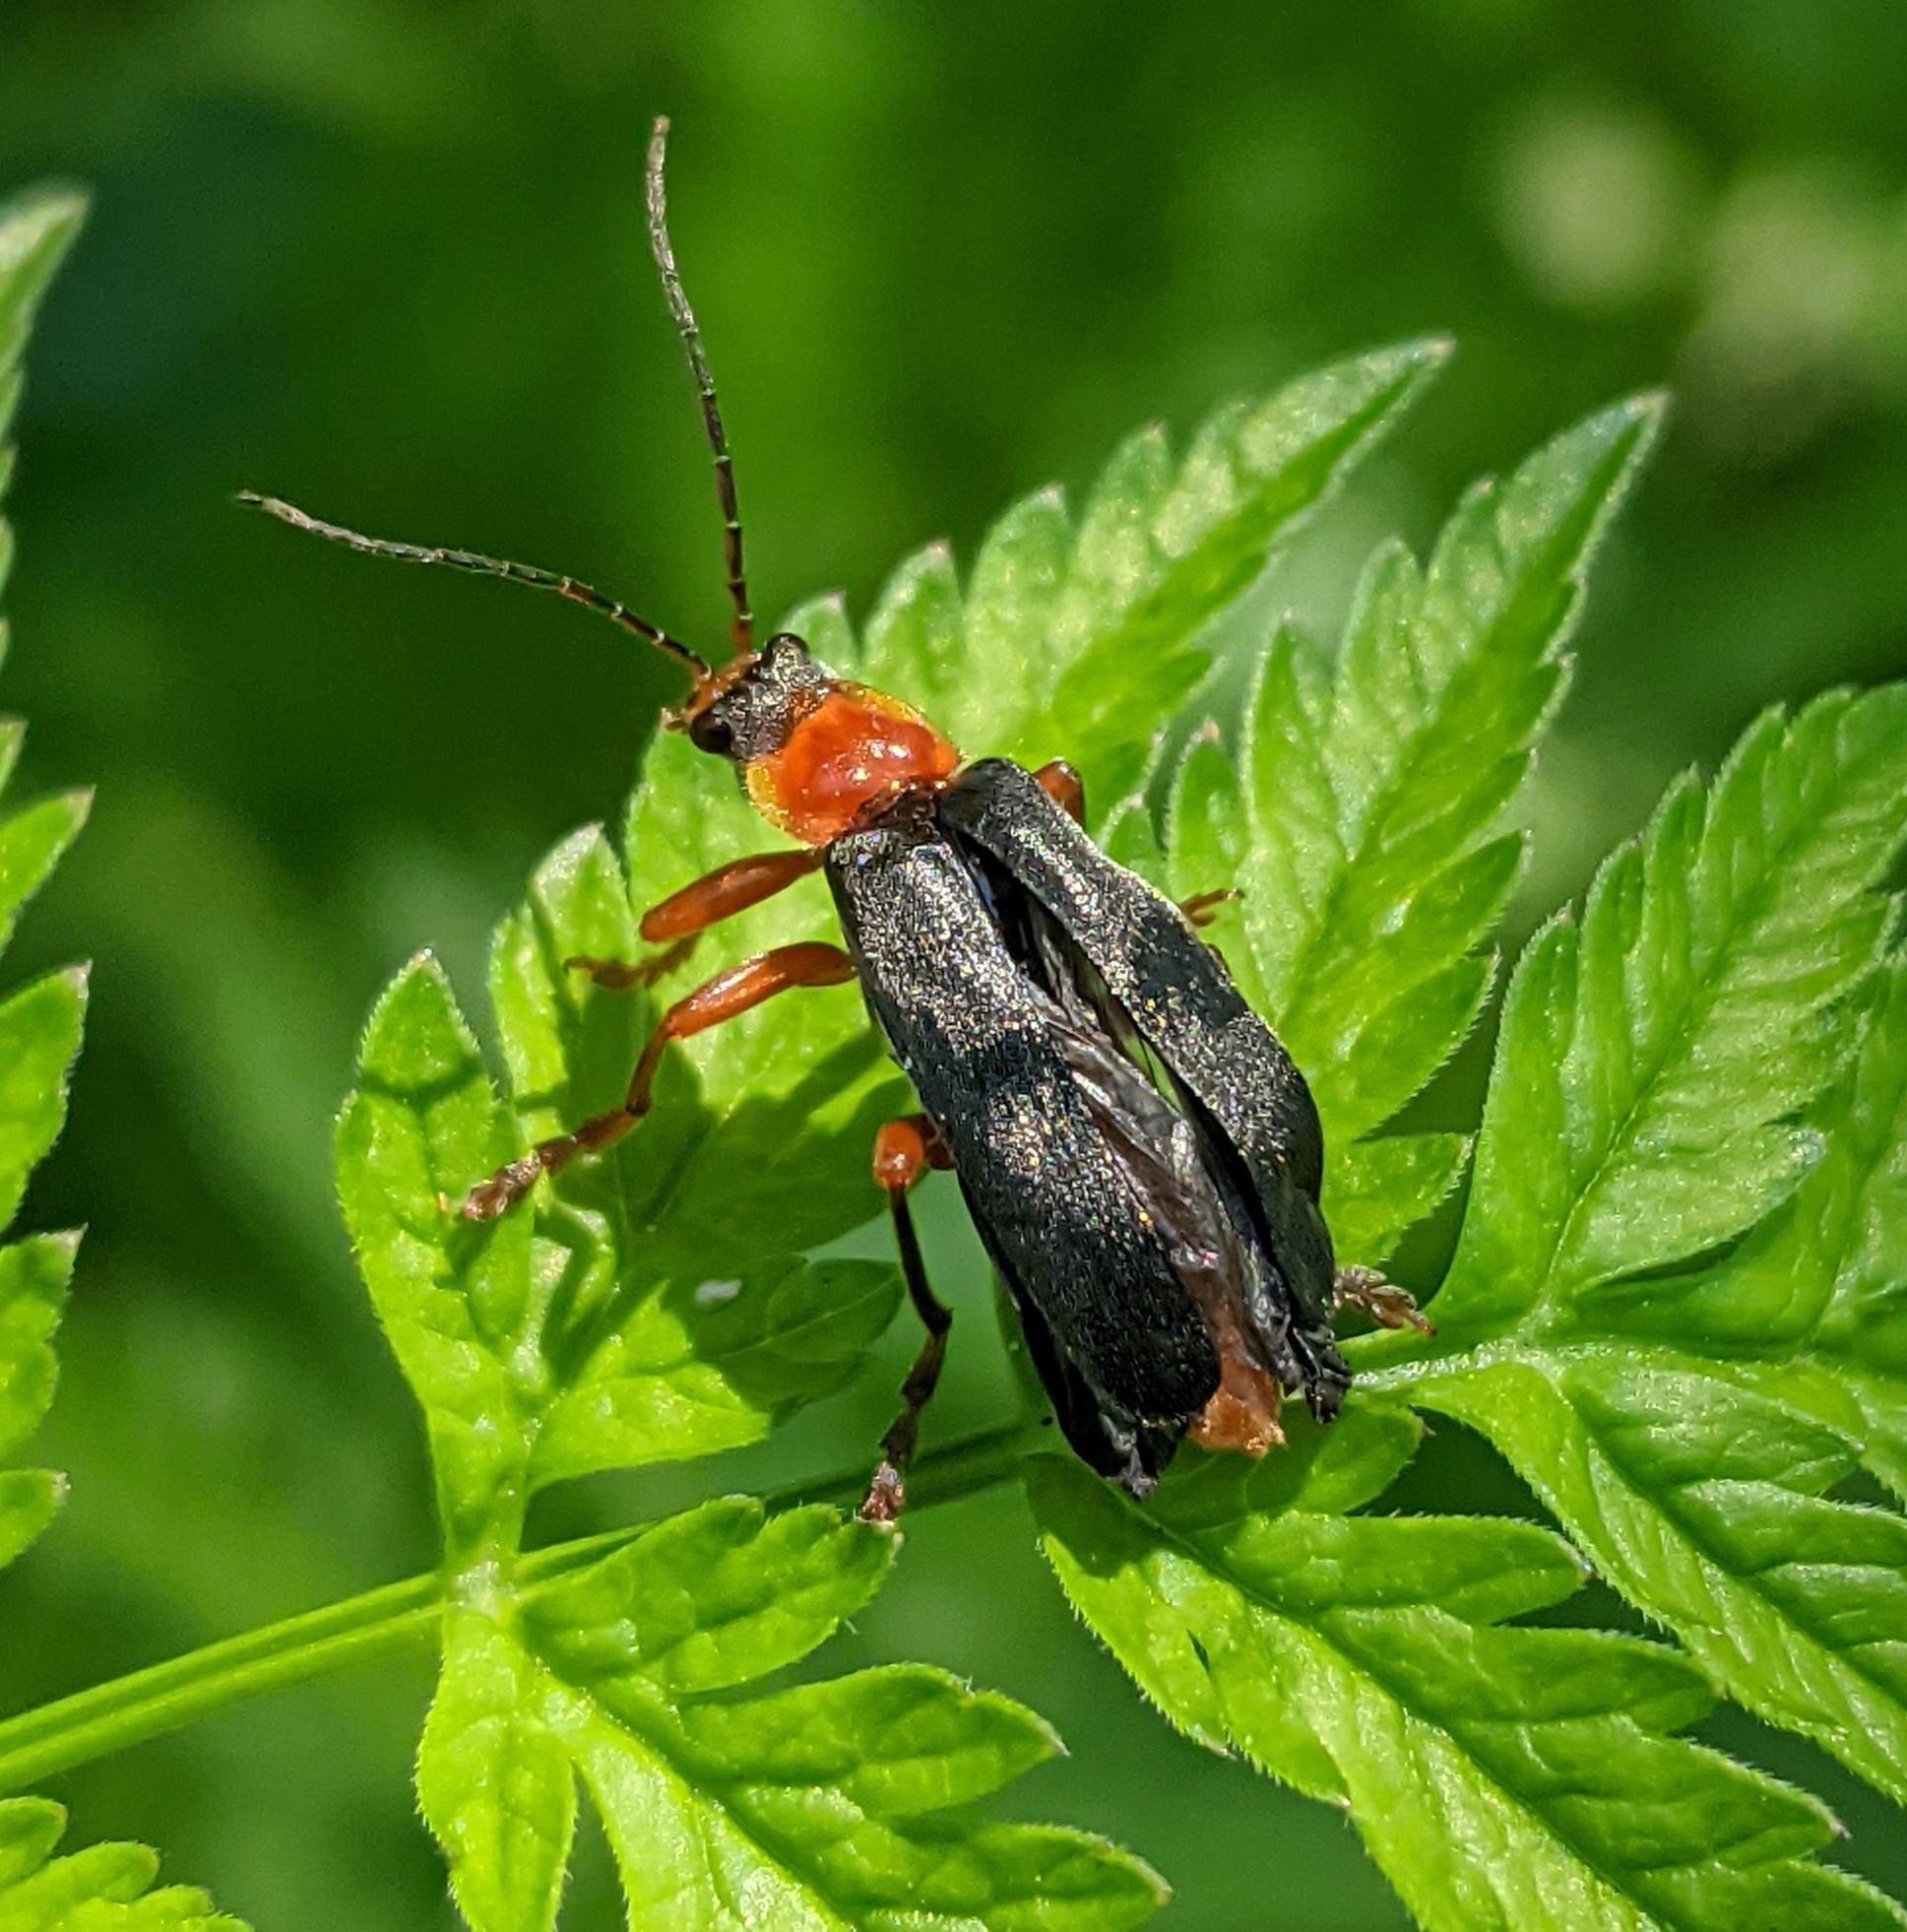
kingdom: Animalia
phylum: Arthropoda
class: Insecta
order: Coleoptera
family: Cantharidae
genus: Cantharis
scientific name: Cantharis pellucida
